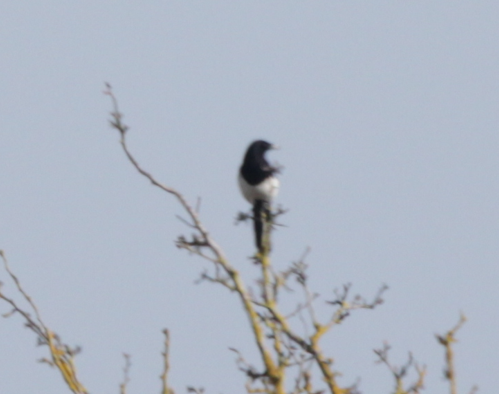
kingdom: Animalia
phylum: Chordata
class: Aves
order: Passeriformes
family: Corvidae
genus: Pica
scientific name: Pica pica
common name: Eurasian magpie
